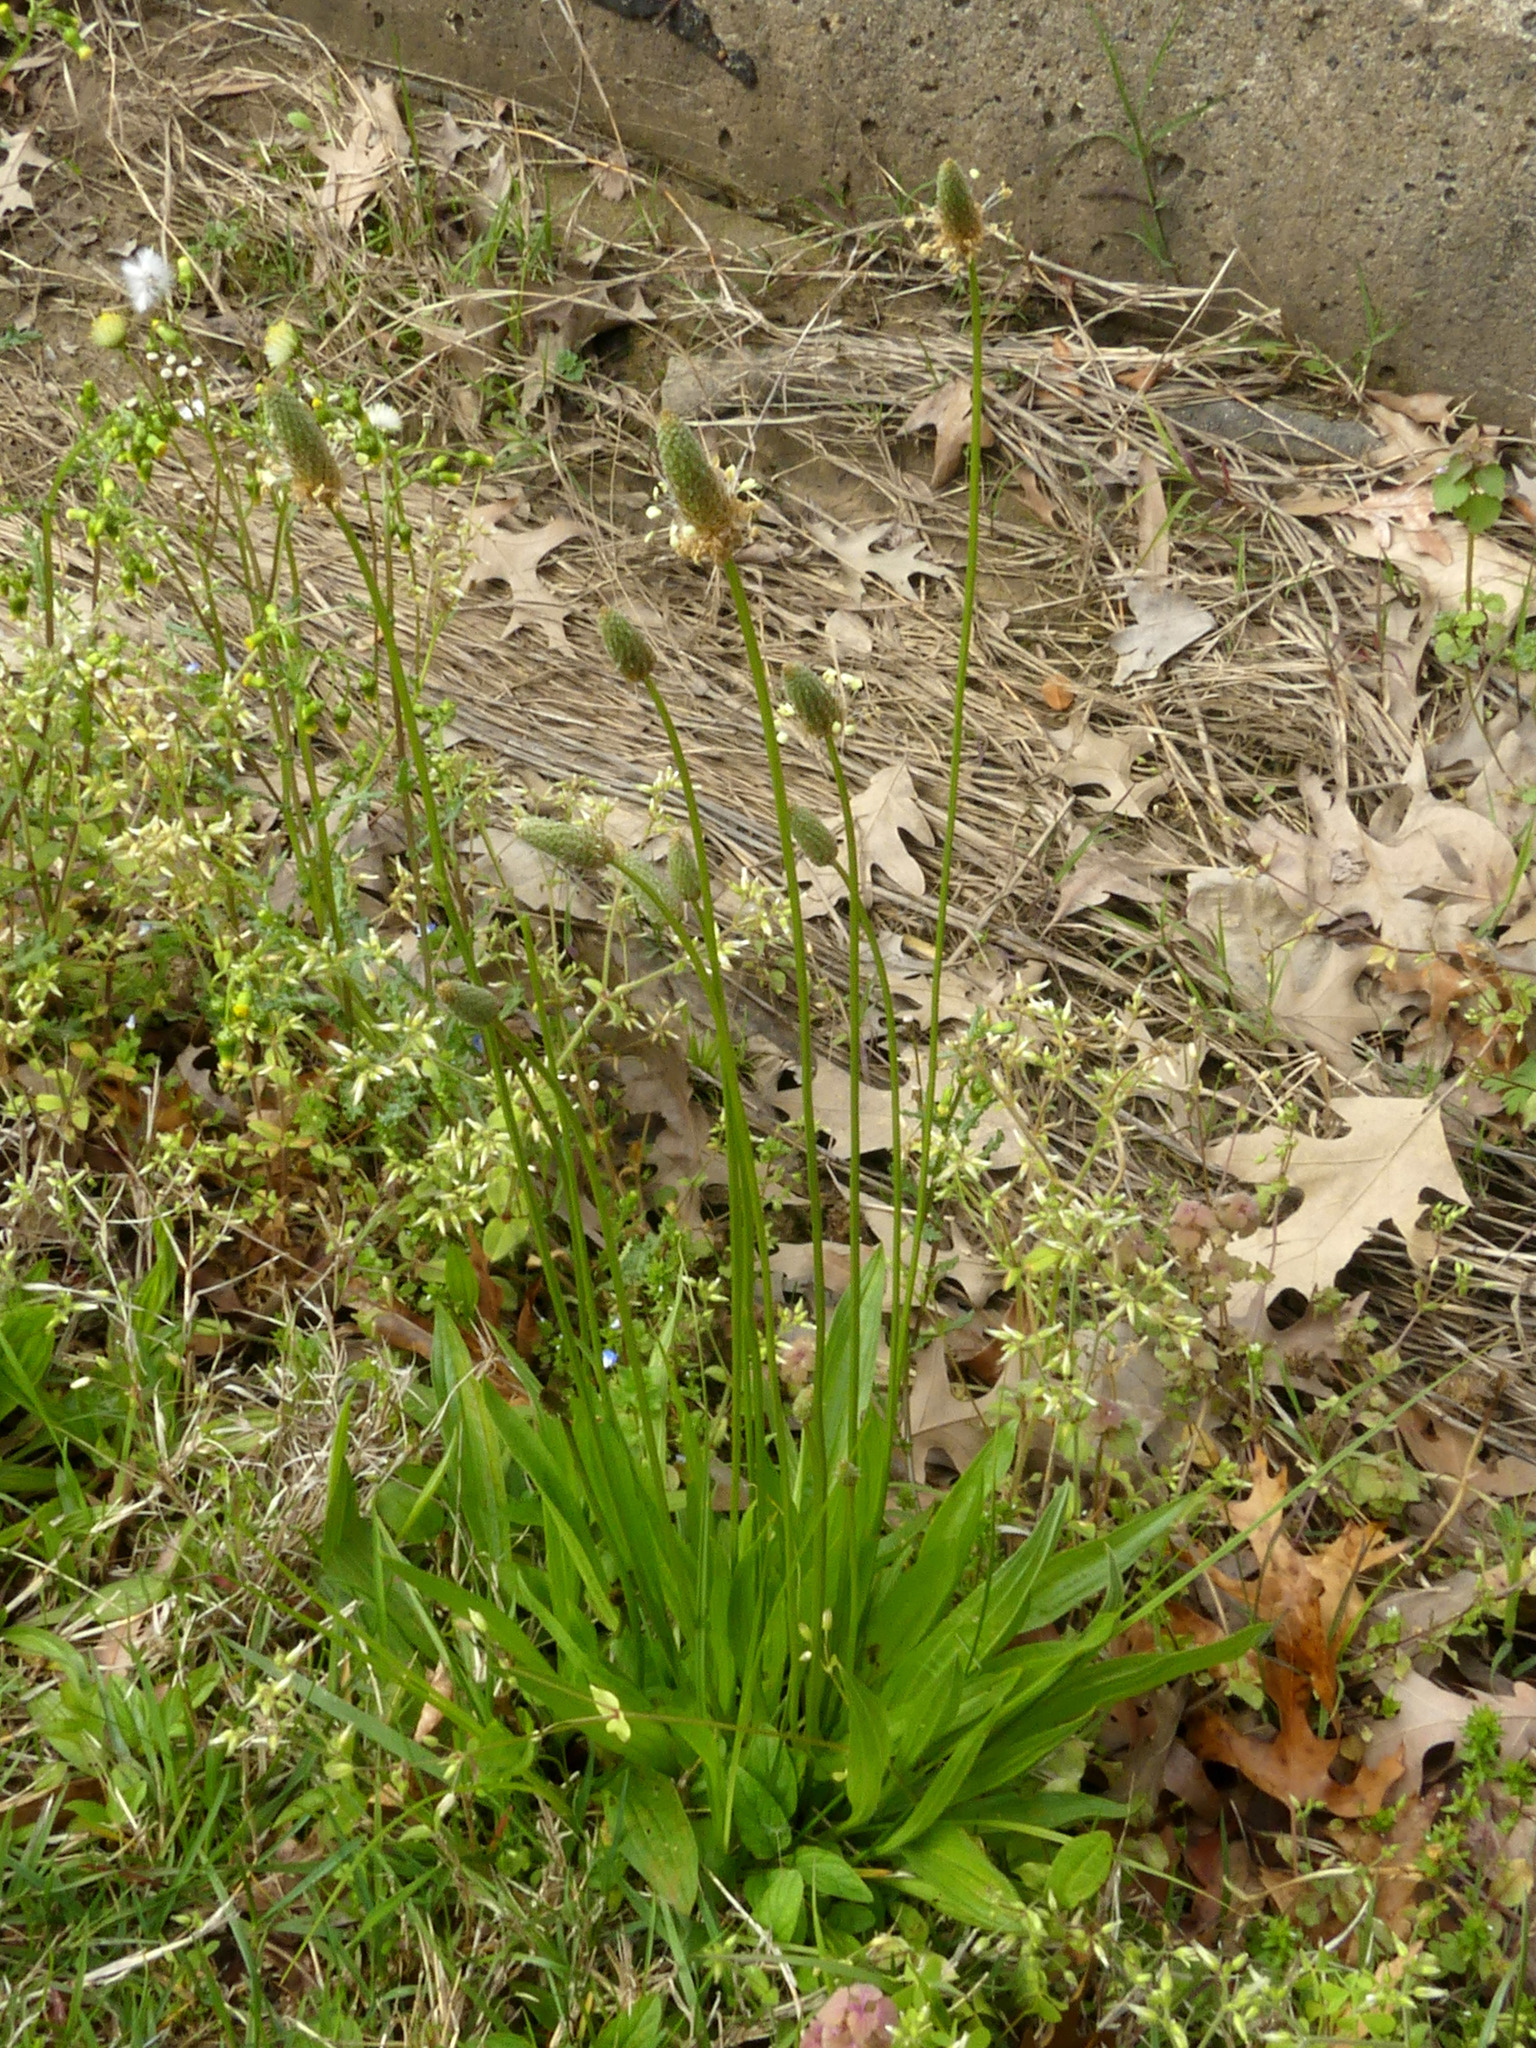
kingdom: Plantae
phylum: Tracheophyta
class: Magnoliopsida
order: Lamiales
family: Plantaginaceae
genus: Plantago
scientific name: Plantago lanceolata
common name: Ribwort plantain
